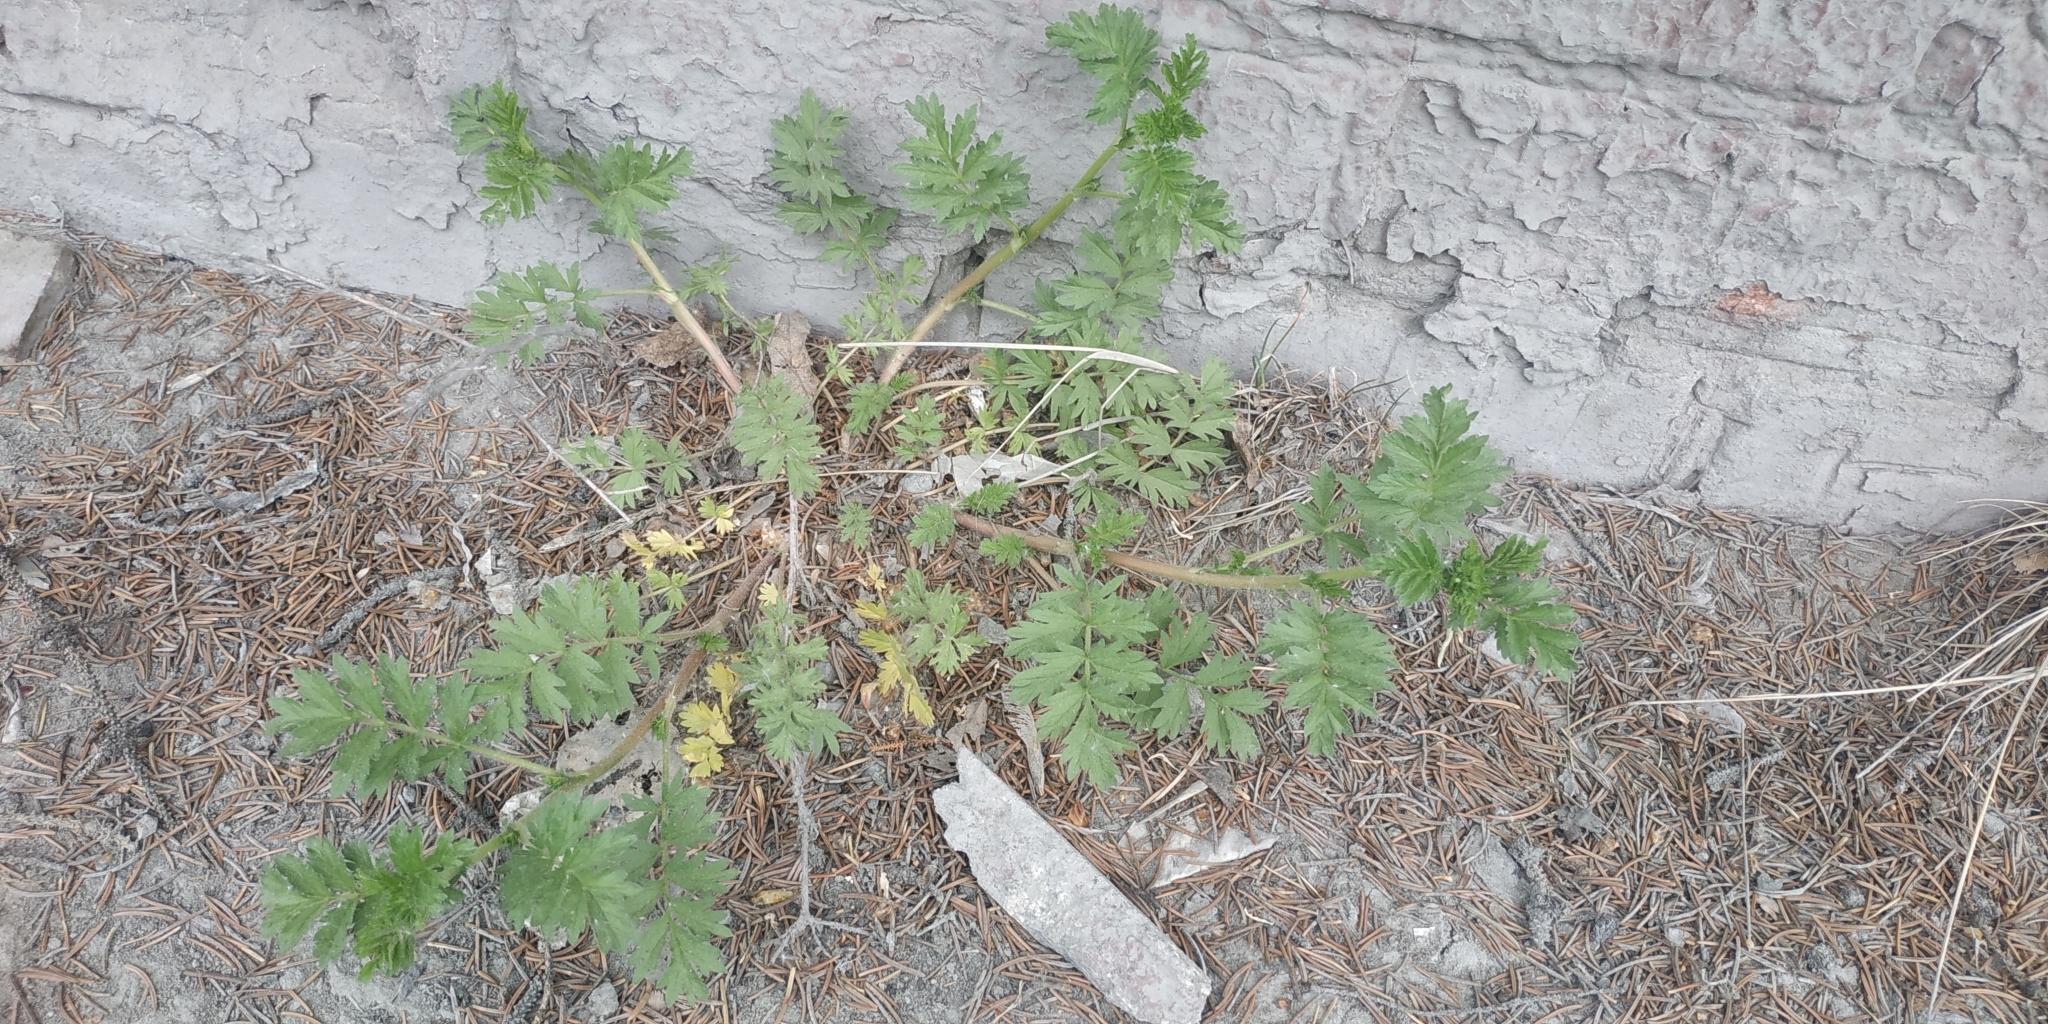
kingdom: Plantae
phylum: Tracheophyta
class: Magnoliopsida
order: Rosales
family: Rosaceae
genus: Potentilla
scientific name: Potentilla supina
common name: Prostrate cinquefoil
